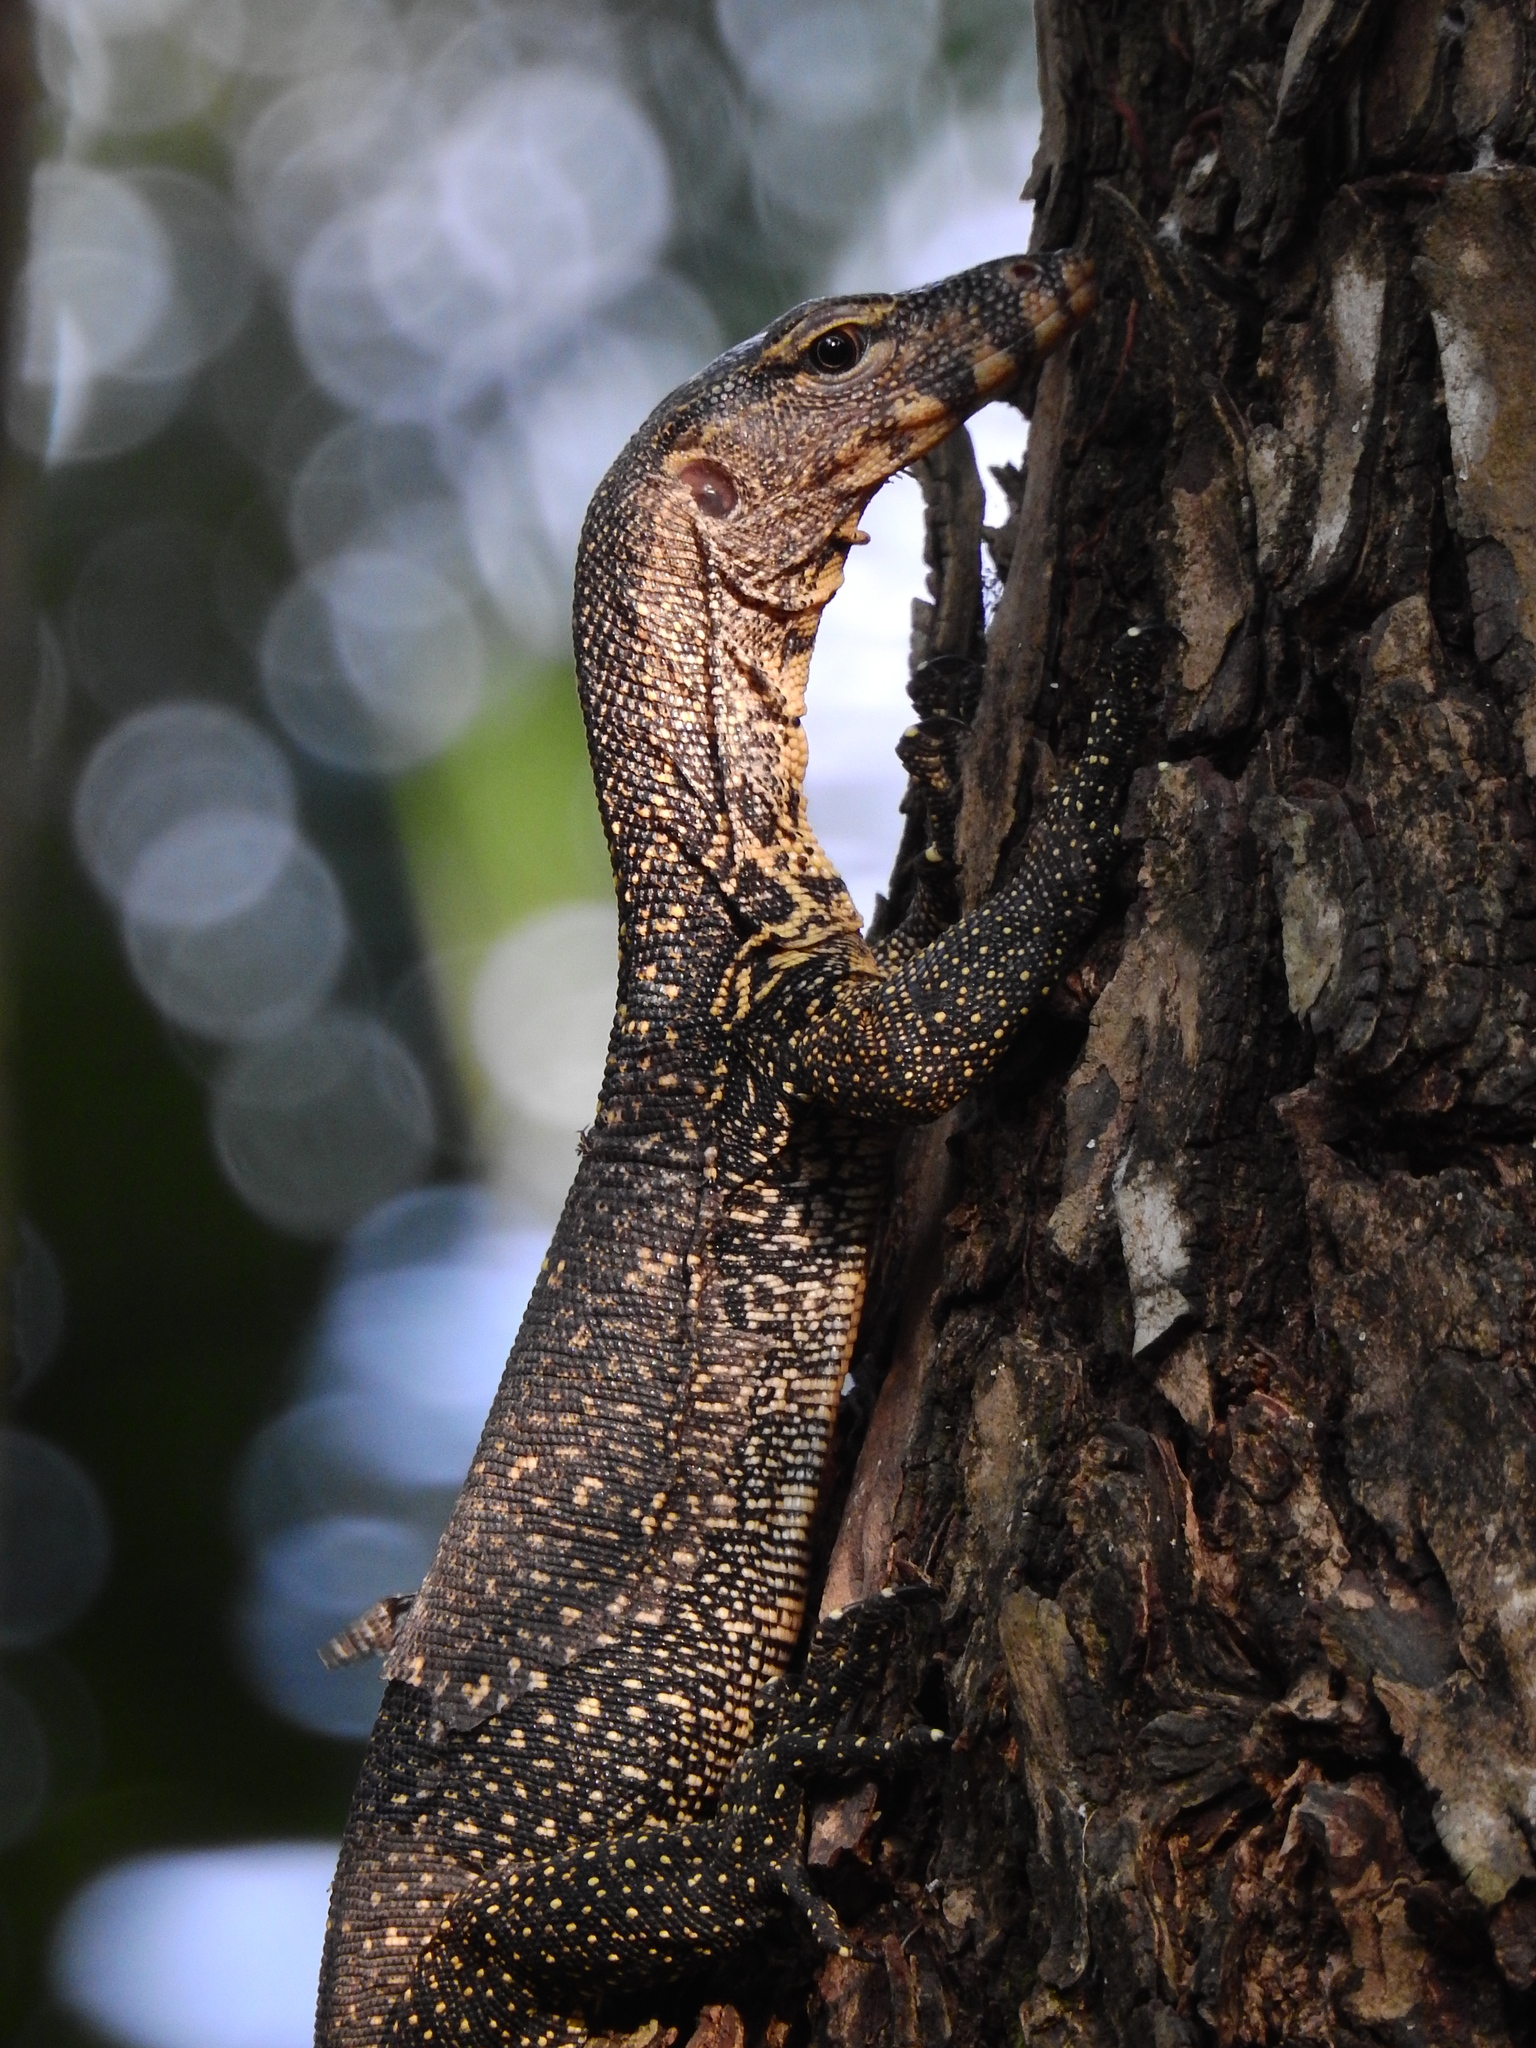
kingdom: Animalia
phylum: Chordata
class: Squamata
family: Varanidae
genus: Varanus
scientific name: Varanus salvator
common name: Common water monitor
